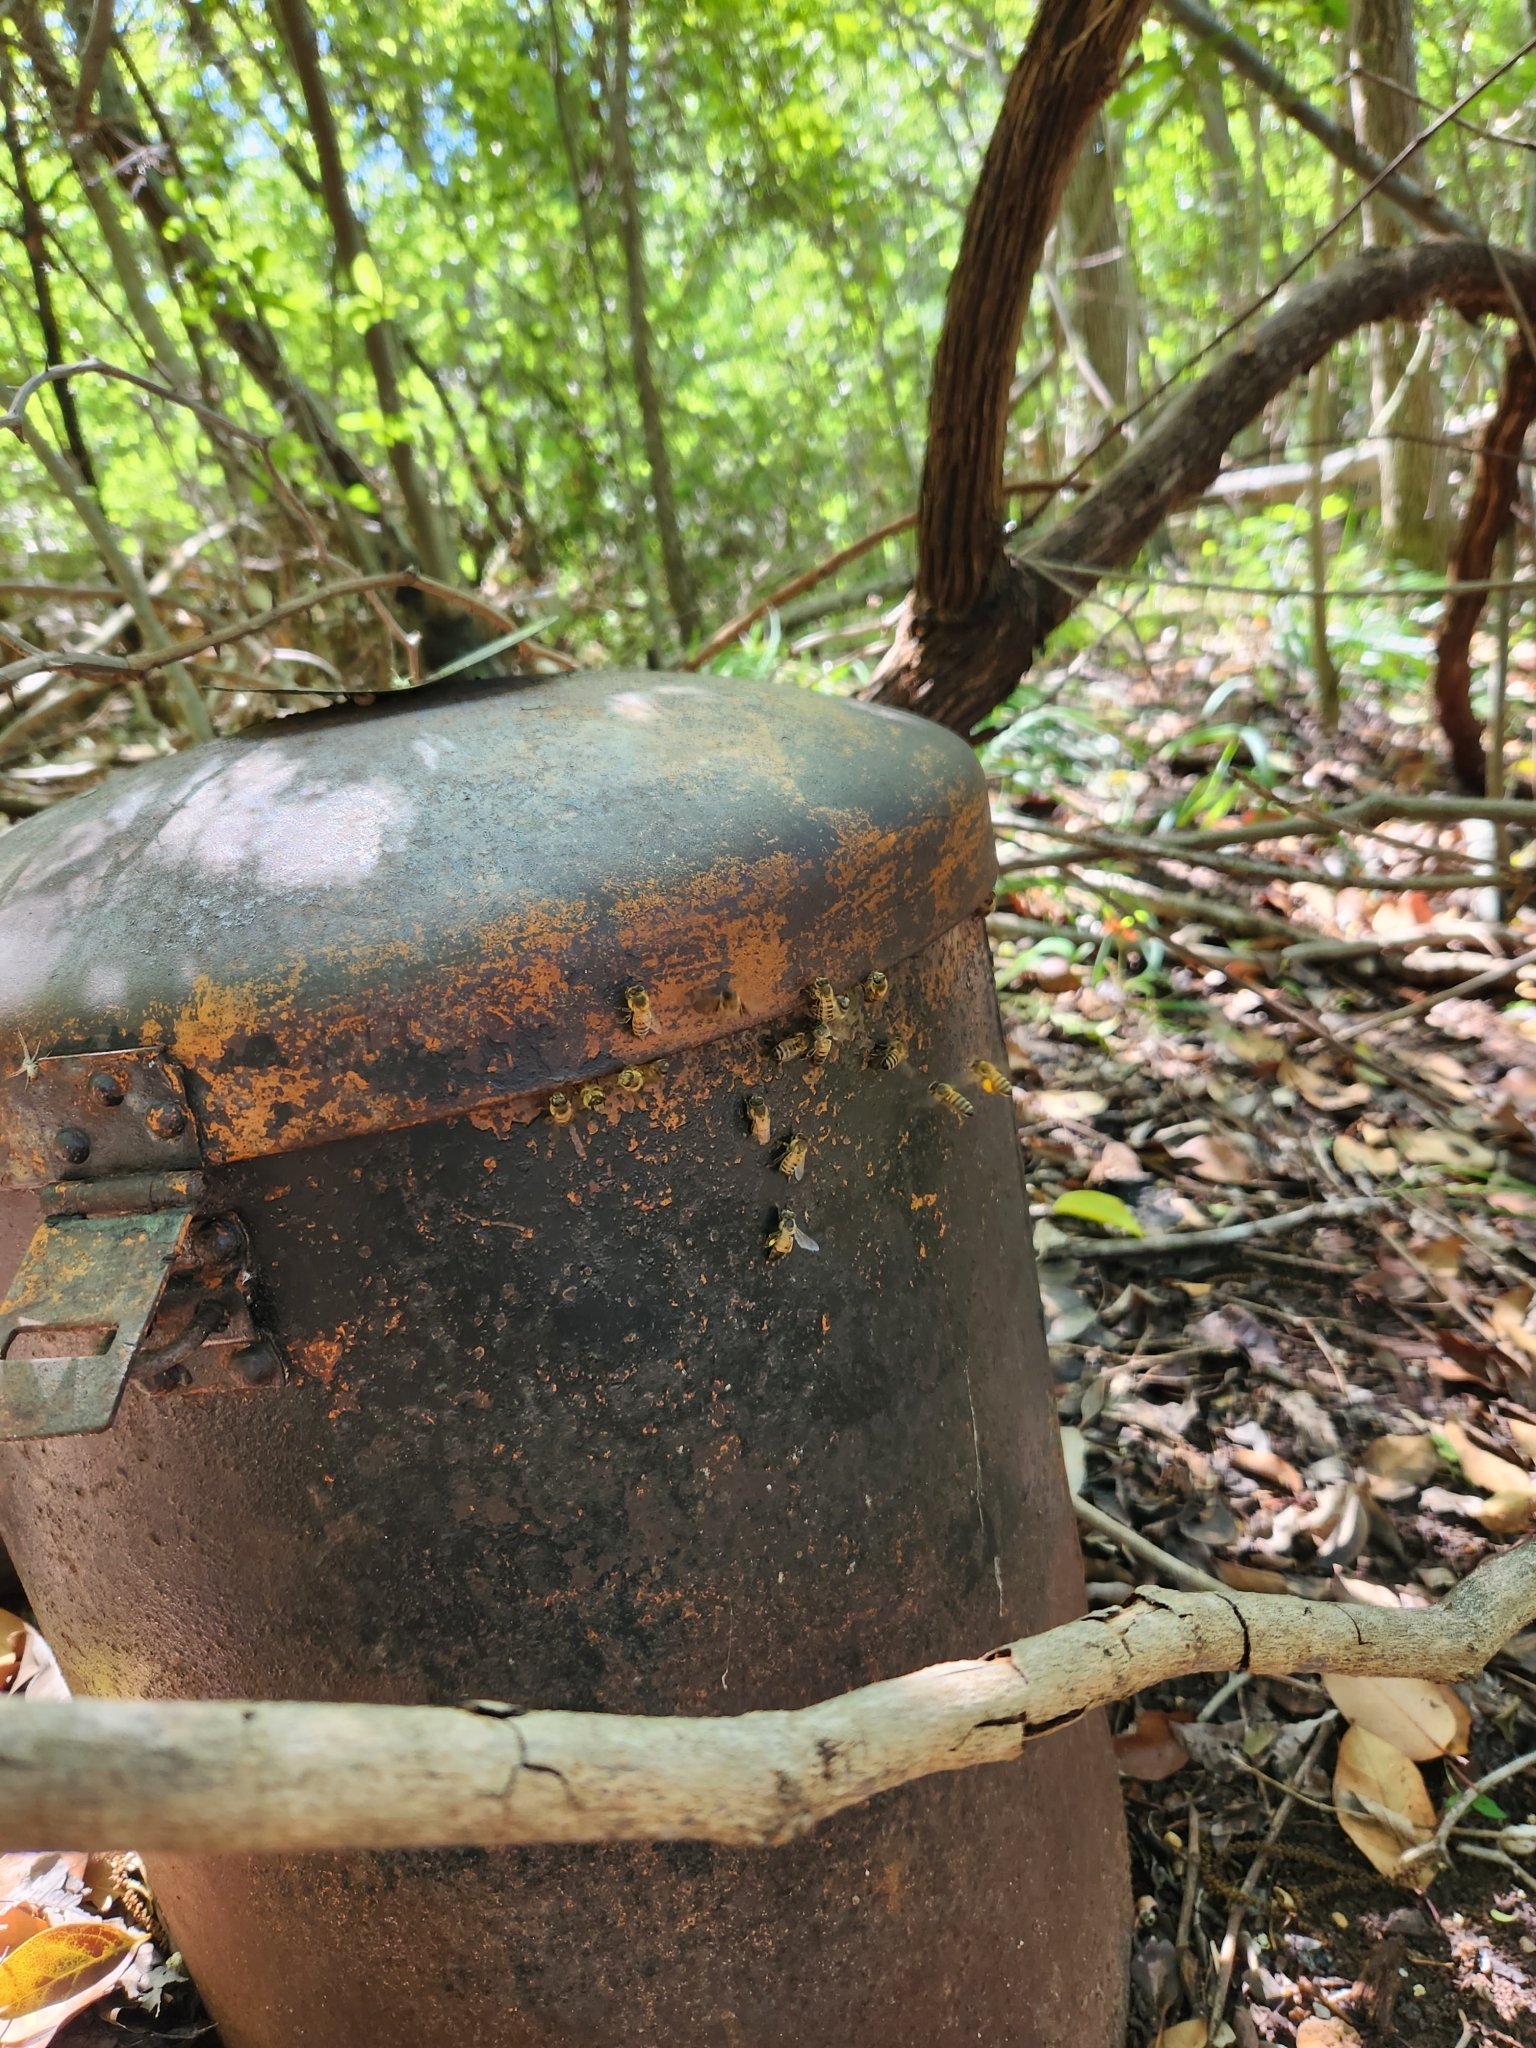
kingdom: Animalia
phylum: Arthropoda
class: Insecta
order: Hymenoptera
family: Apidae
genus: Apis
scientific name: Apis mellifera
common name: Honey bee
